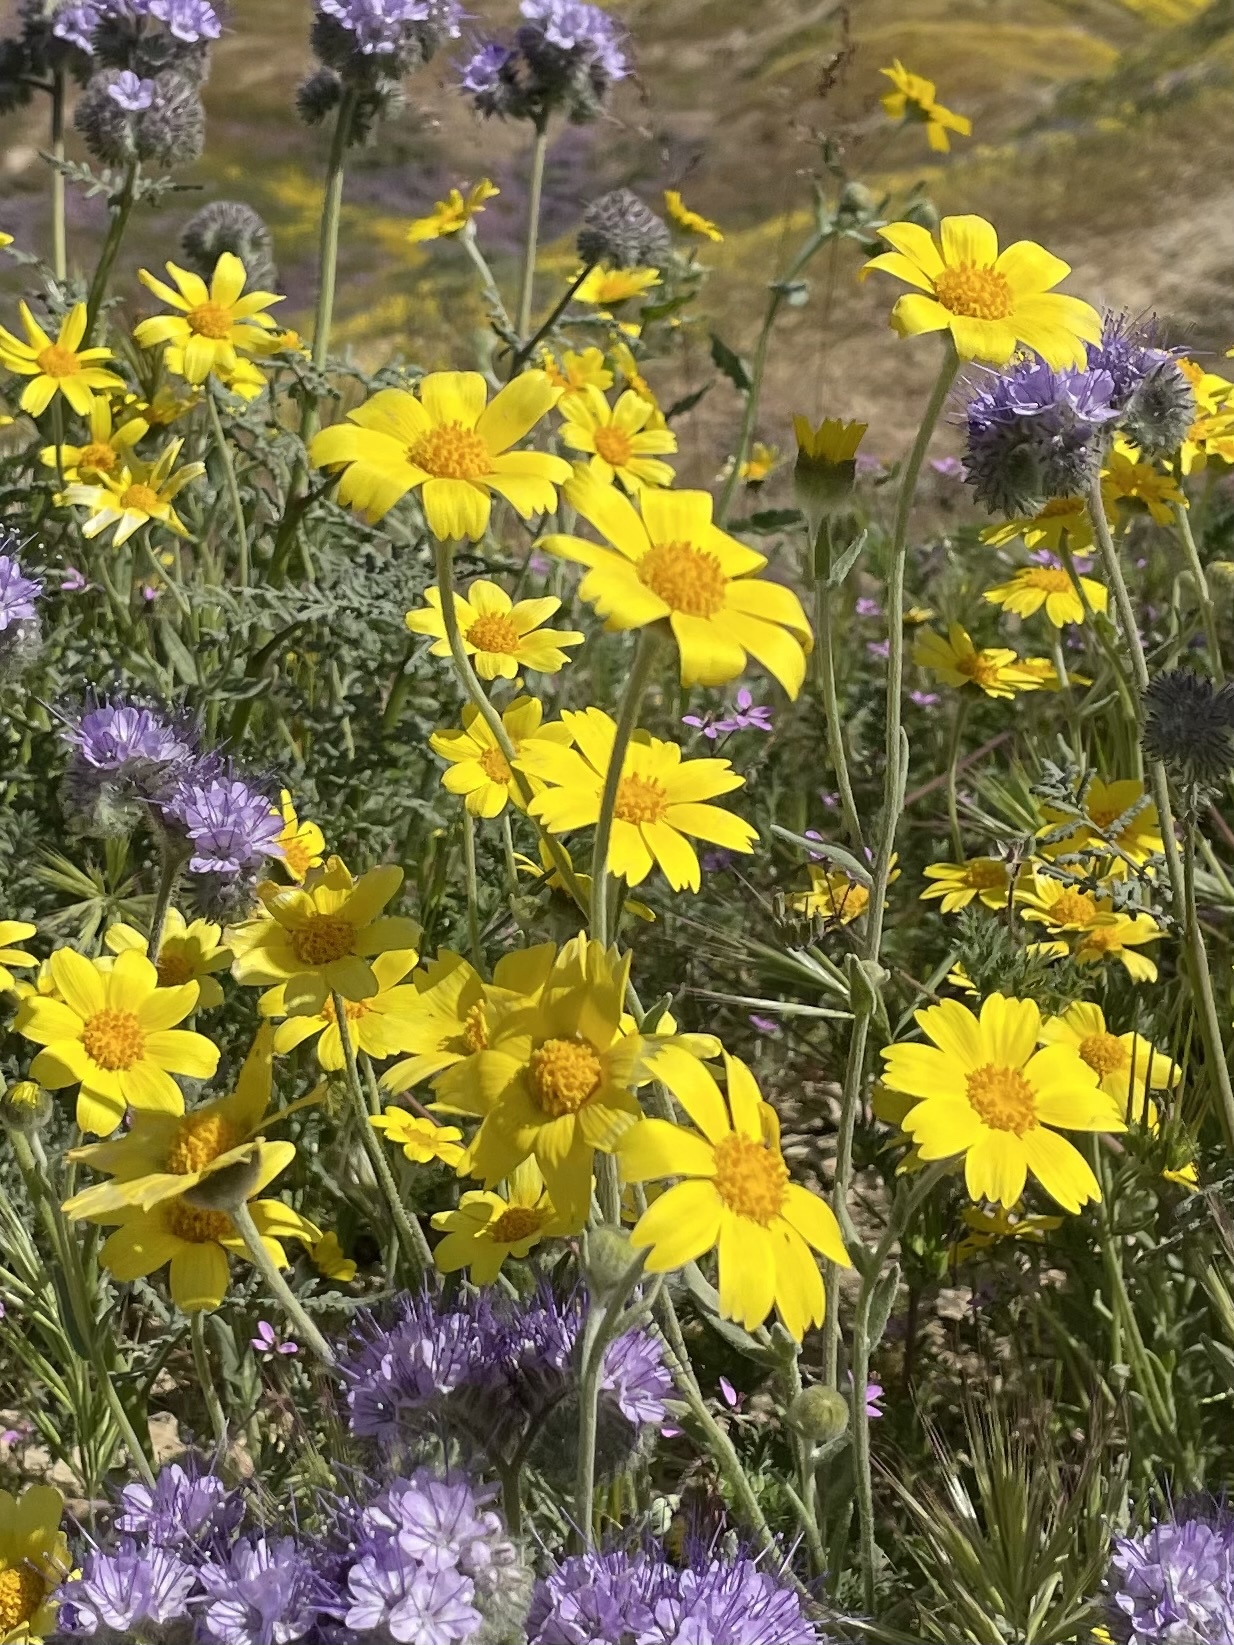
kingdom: Plantae
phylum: Tracheophyta
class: Magnoliopsida
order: Asterales
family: Asteraceae
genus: Monolopia
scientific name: Monolopia lanceolata
